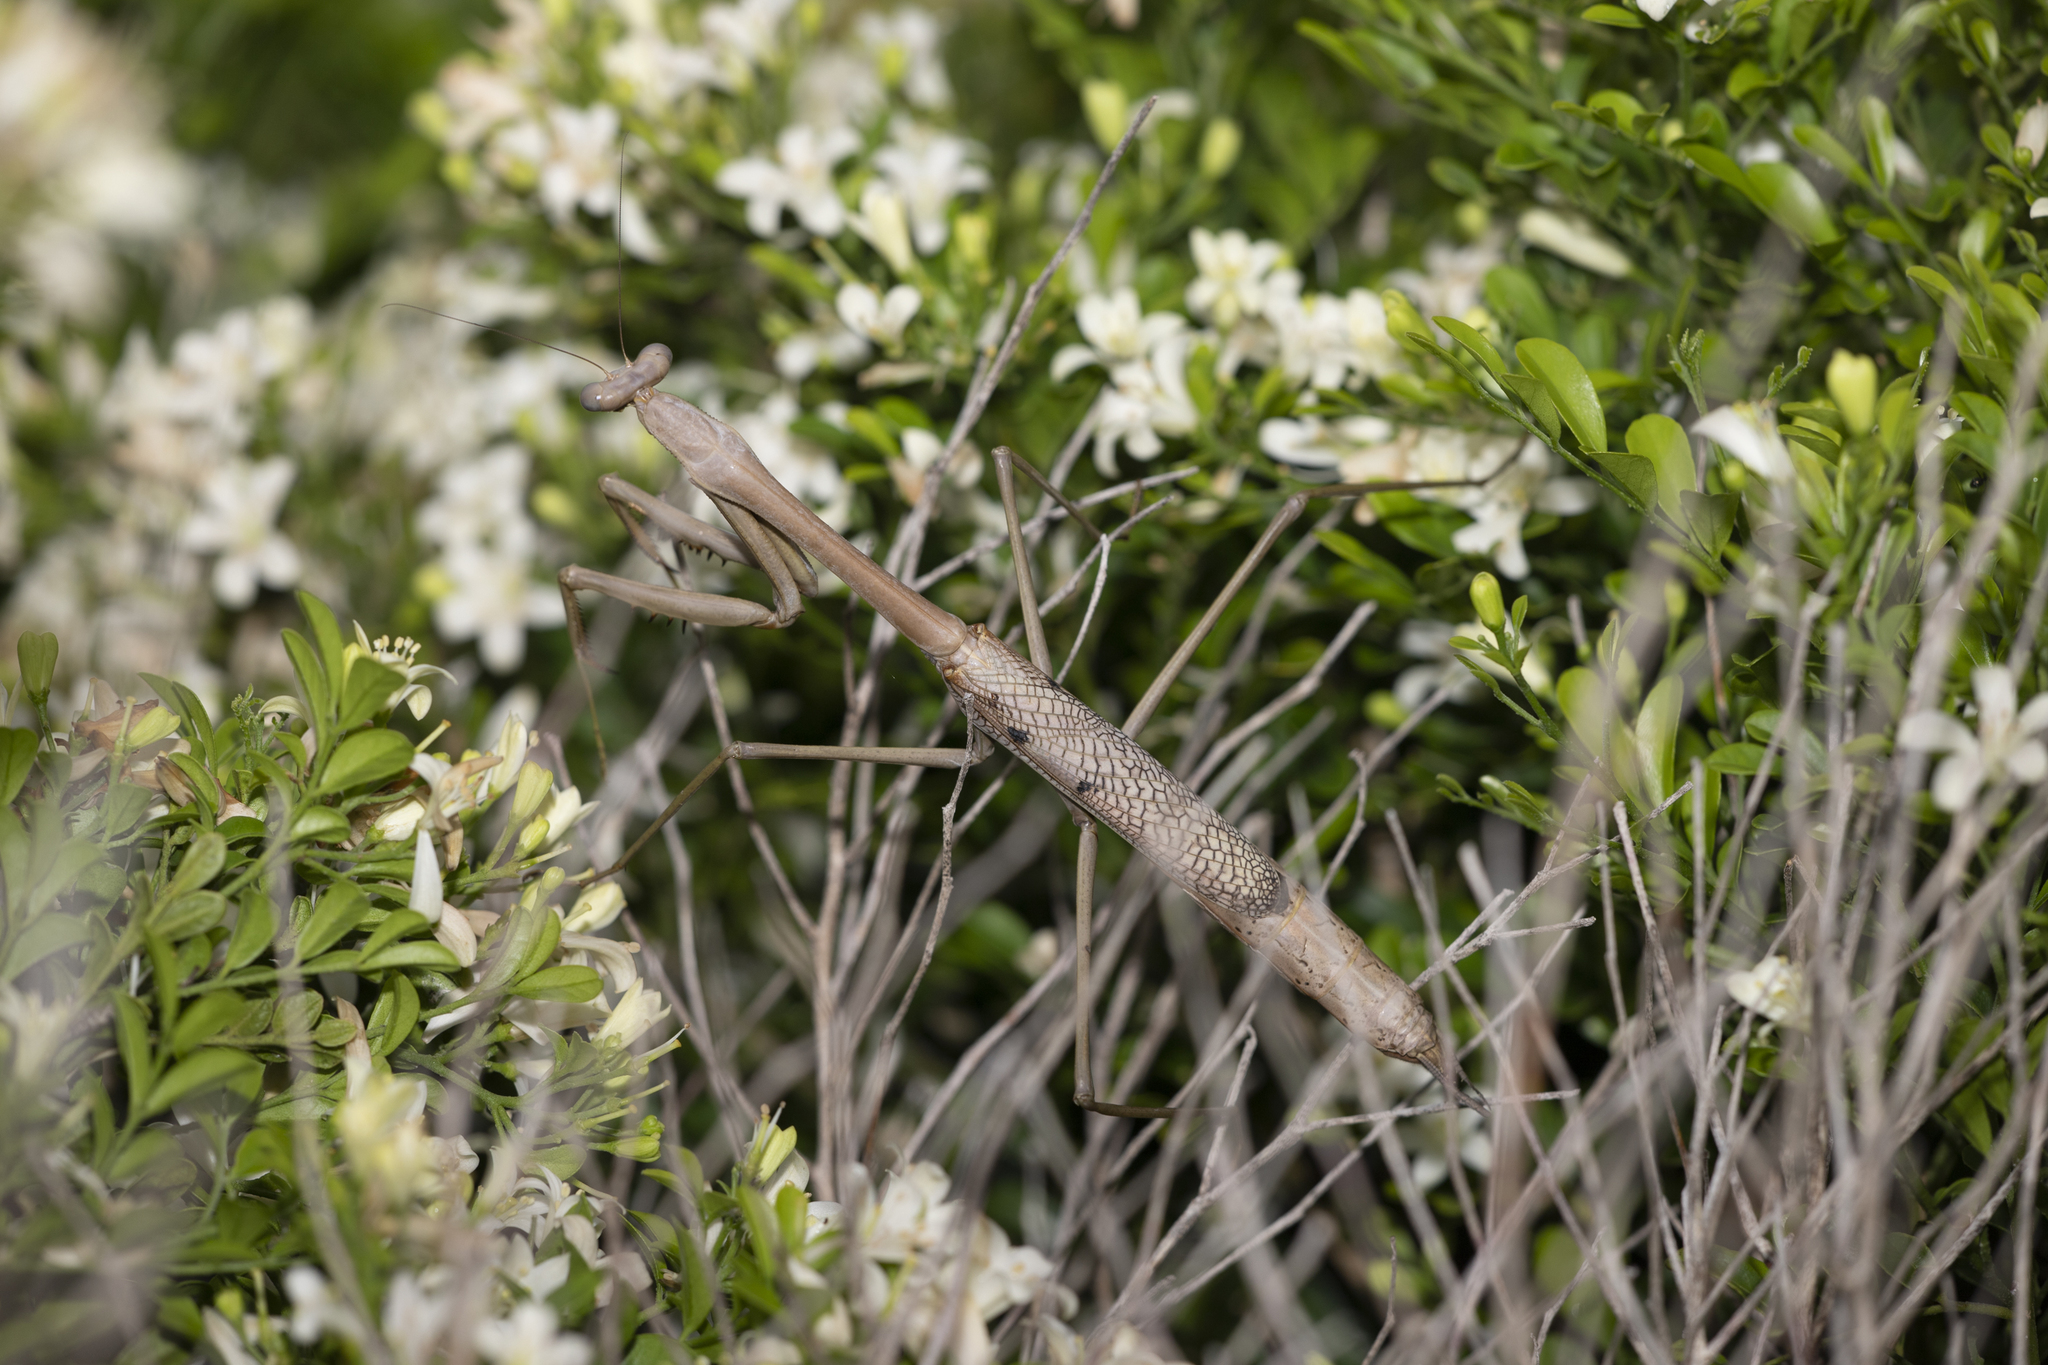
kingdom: Animalia
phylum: Arthropoda
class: Insecta
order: Mantodea
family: Mantidae
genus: Archimantis
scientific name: Archimantis latistyla
